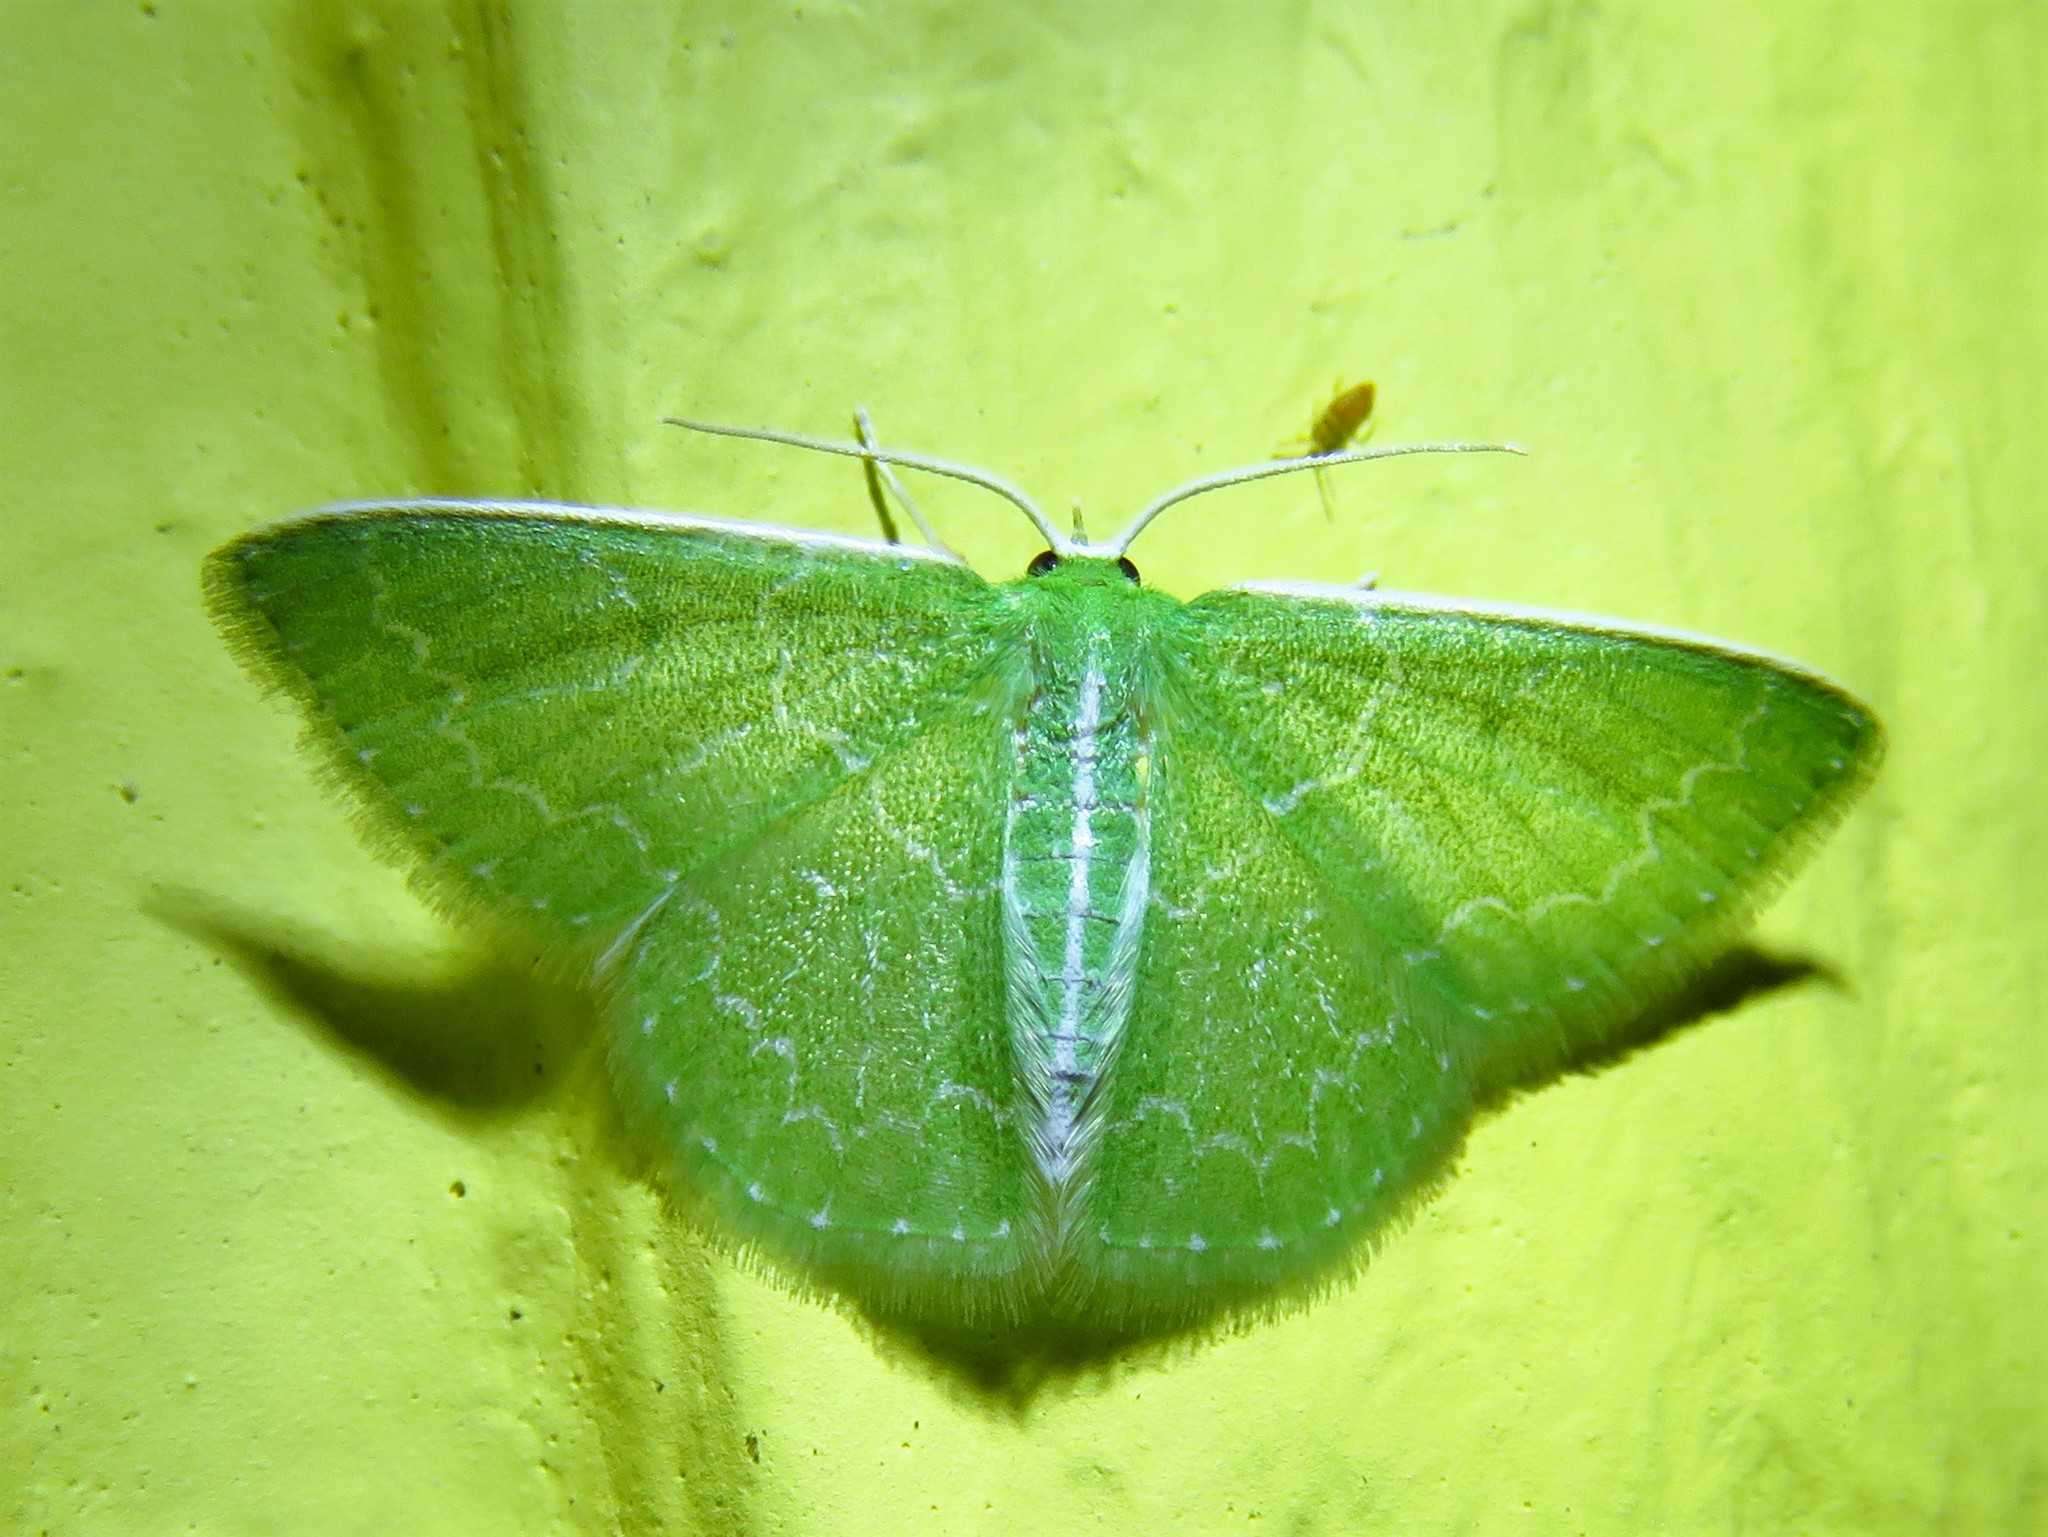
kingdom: Animalia
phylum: Arthropoda
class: Insecta
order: Lepidoptera
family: Geometridae
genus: Synchlora
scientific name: Synchlora frondaria
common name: Southern emerald
